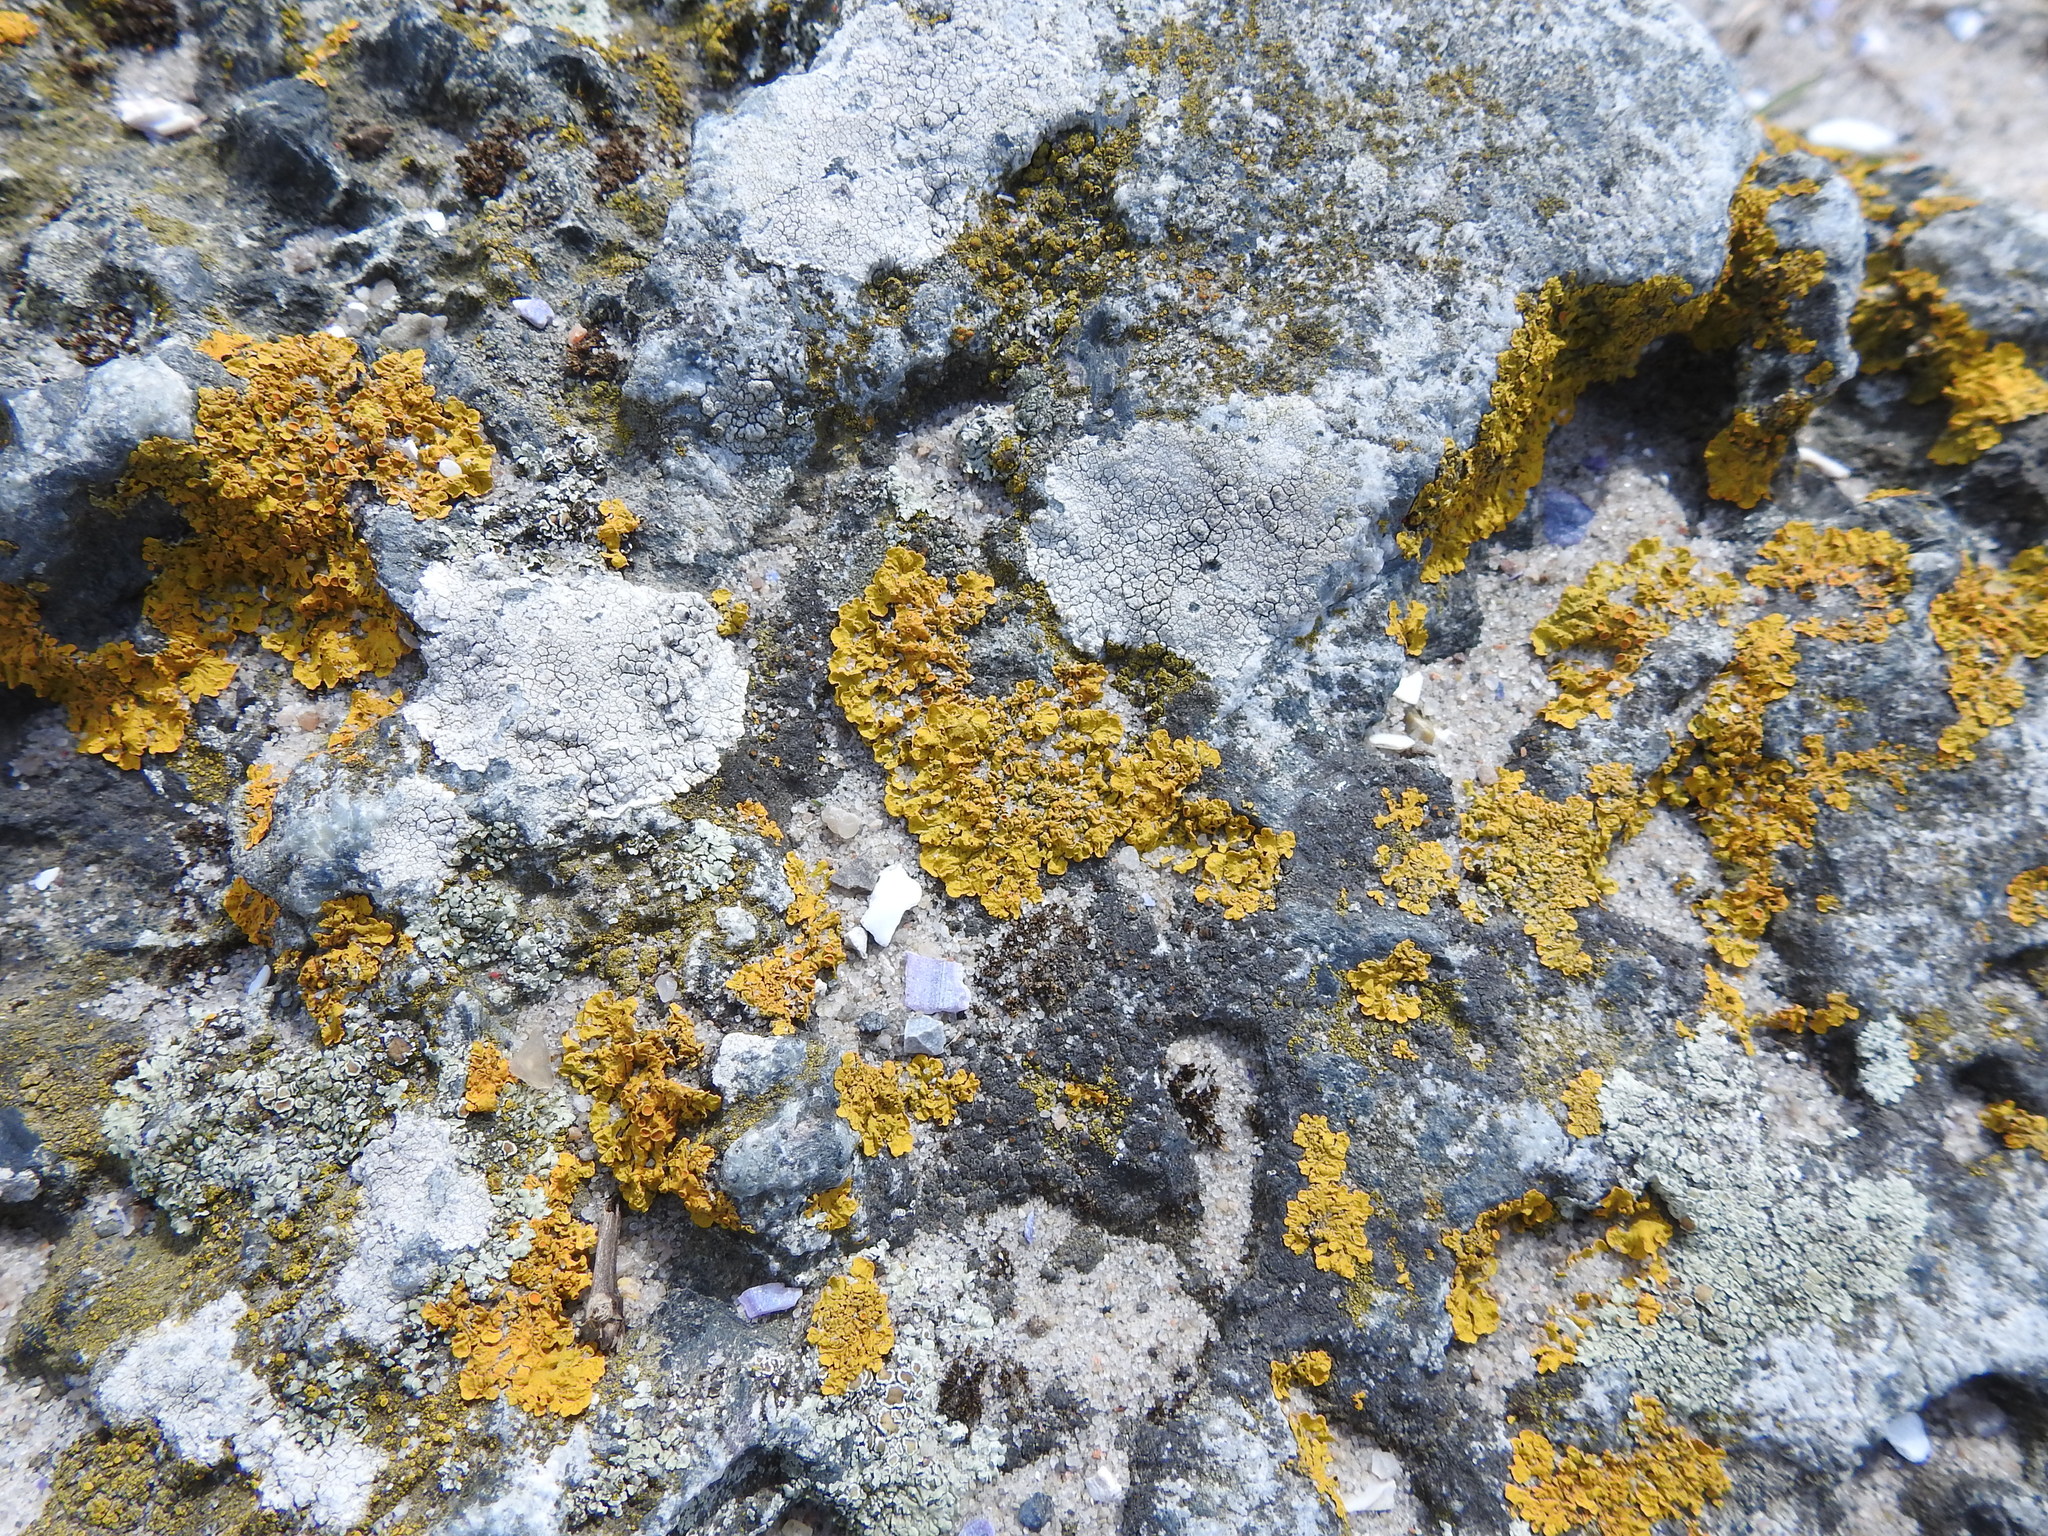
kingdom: Fungi
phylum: Ascomycota
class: Lecanoromycetes
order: Teloschistales
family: Teloschistaceae
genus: Xanthoria
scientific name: Xanthoria parietina
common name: Common orange lichen
